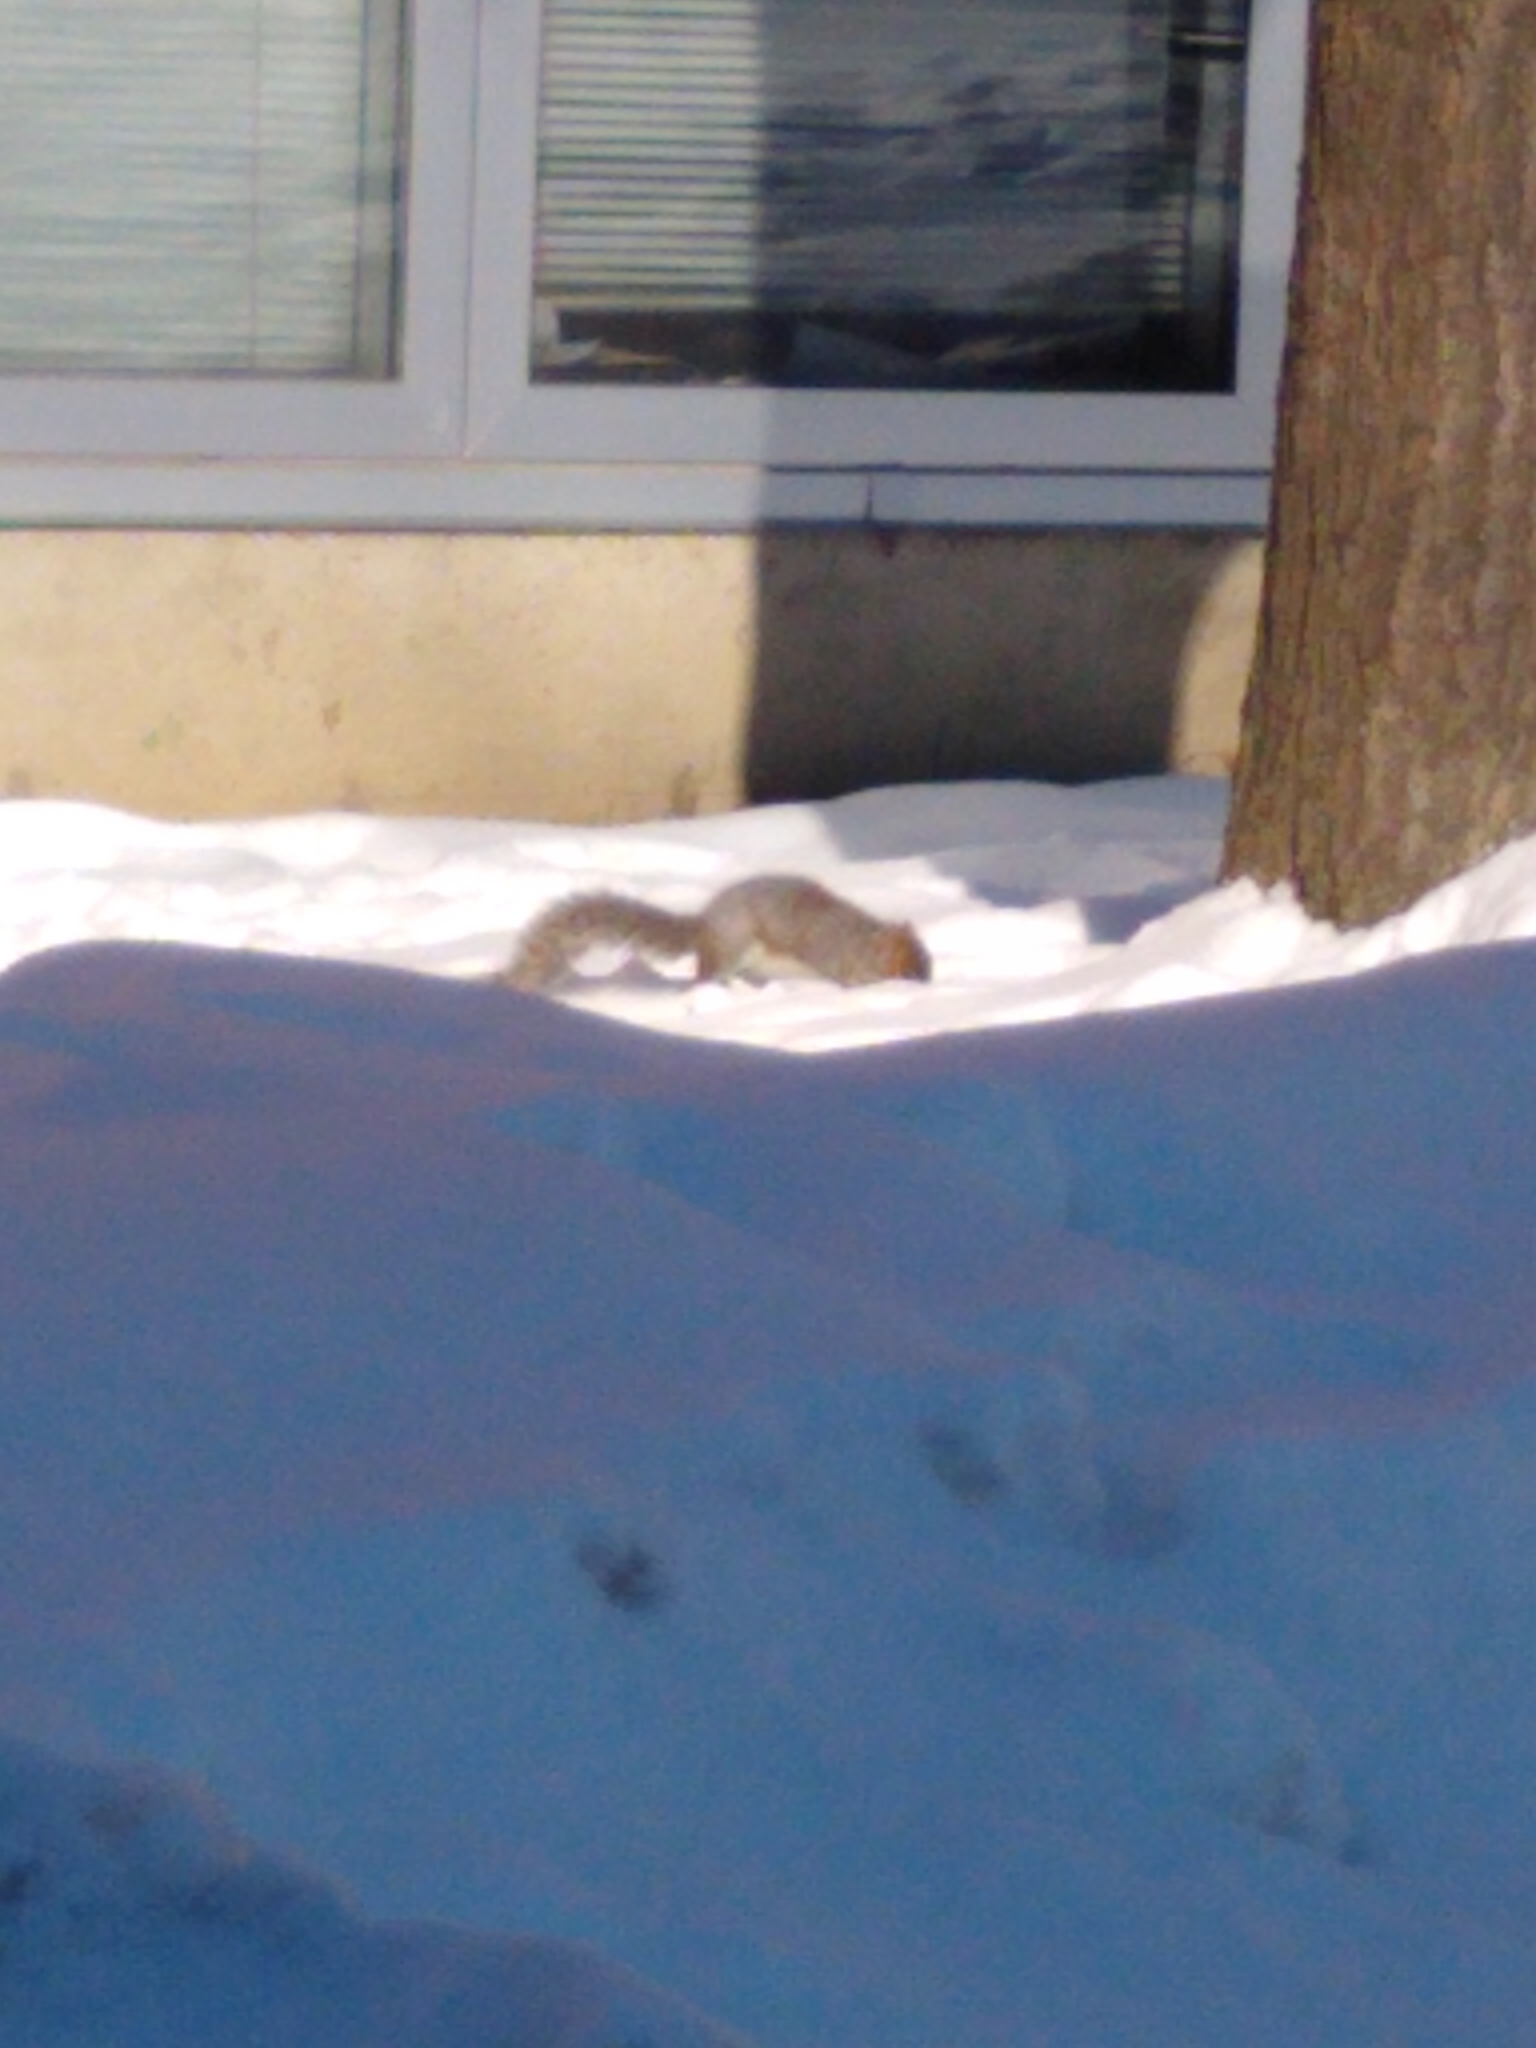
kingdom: Animalia
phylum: Chordata
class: Mammalia
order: Rodentia
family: Sciuridae
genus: Sciurus
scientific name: Sciurus carolinensis
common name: Eastern gray squirrel
